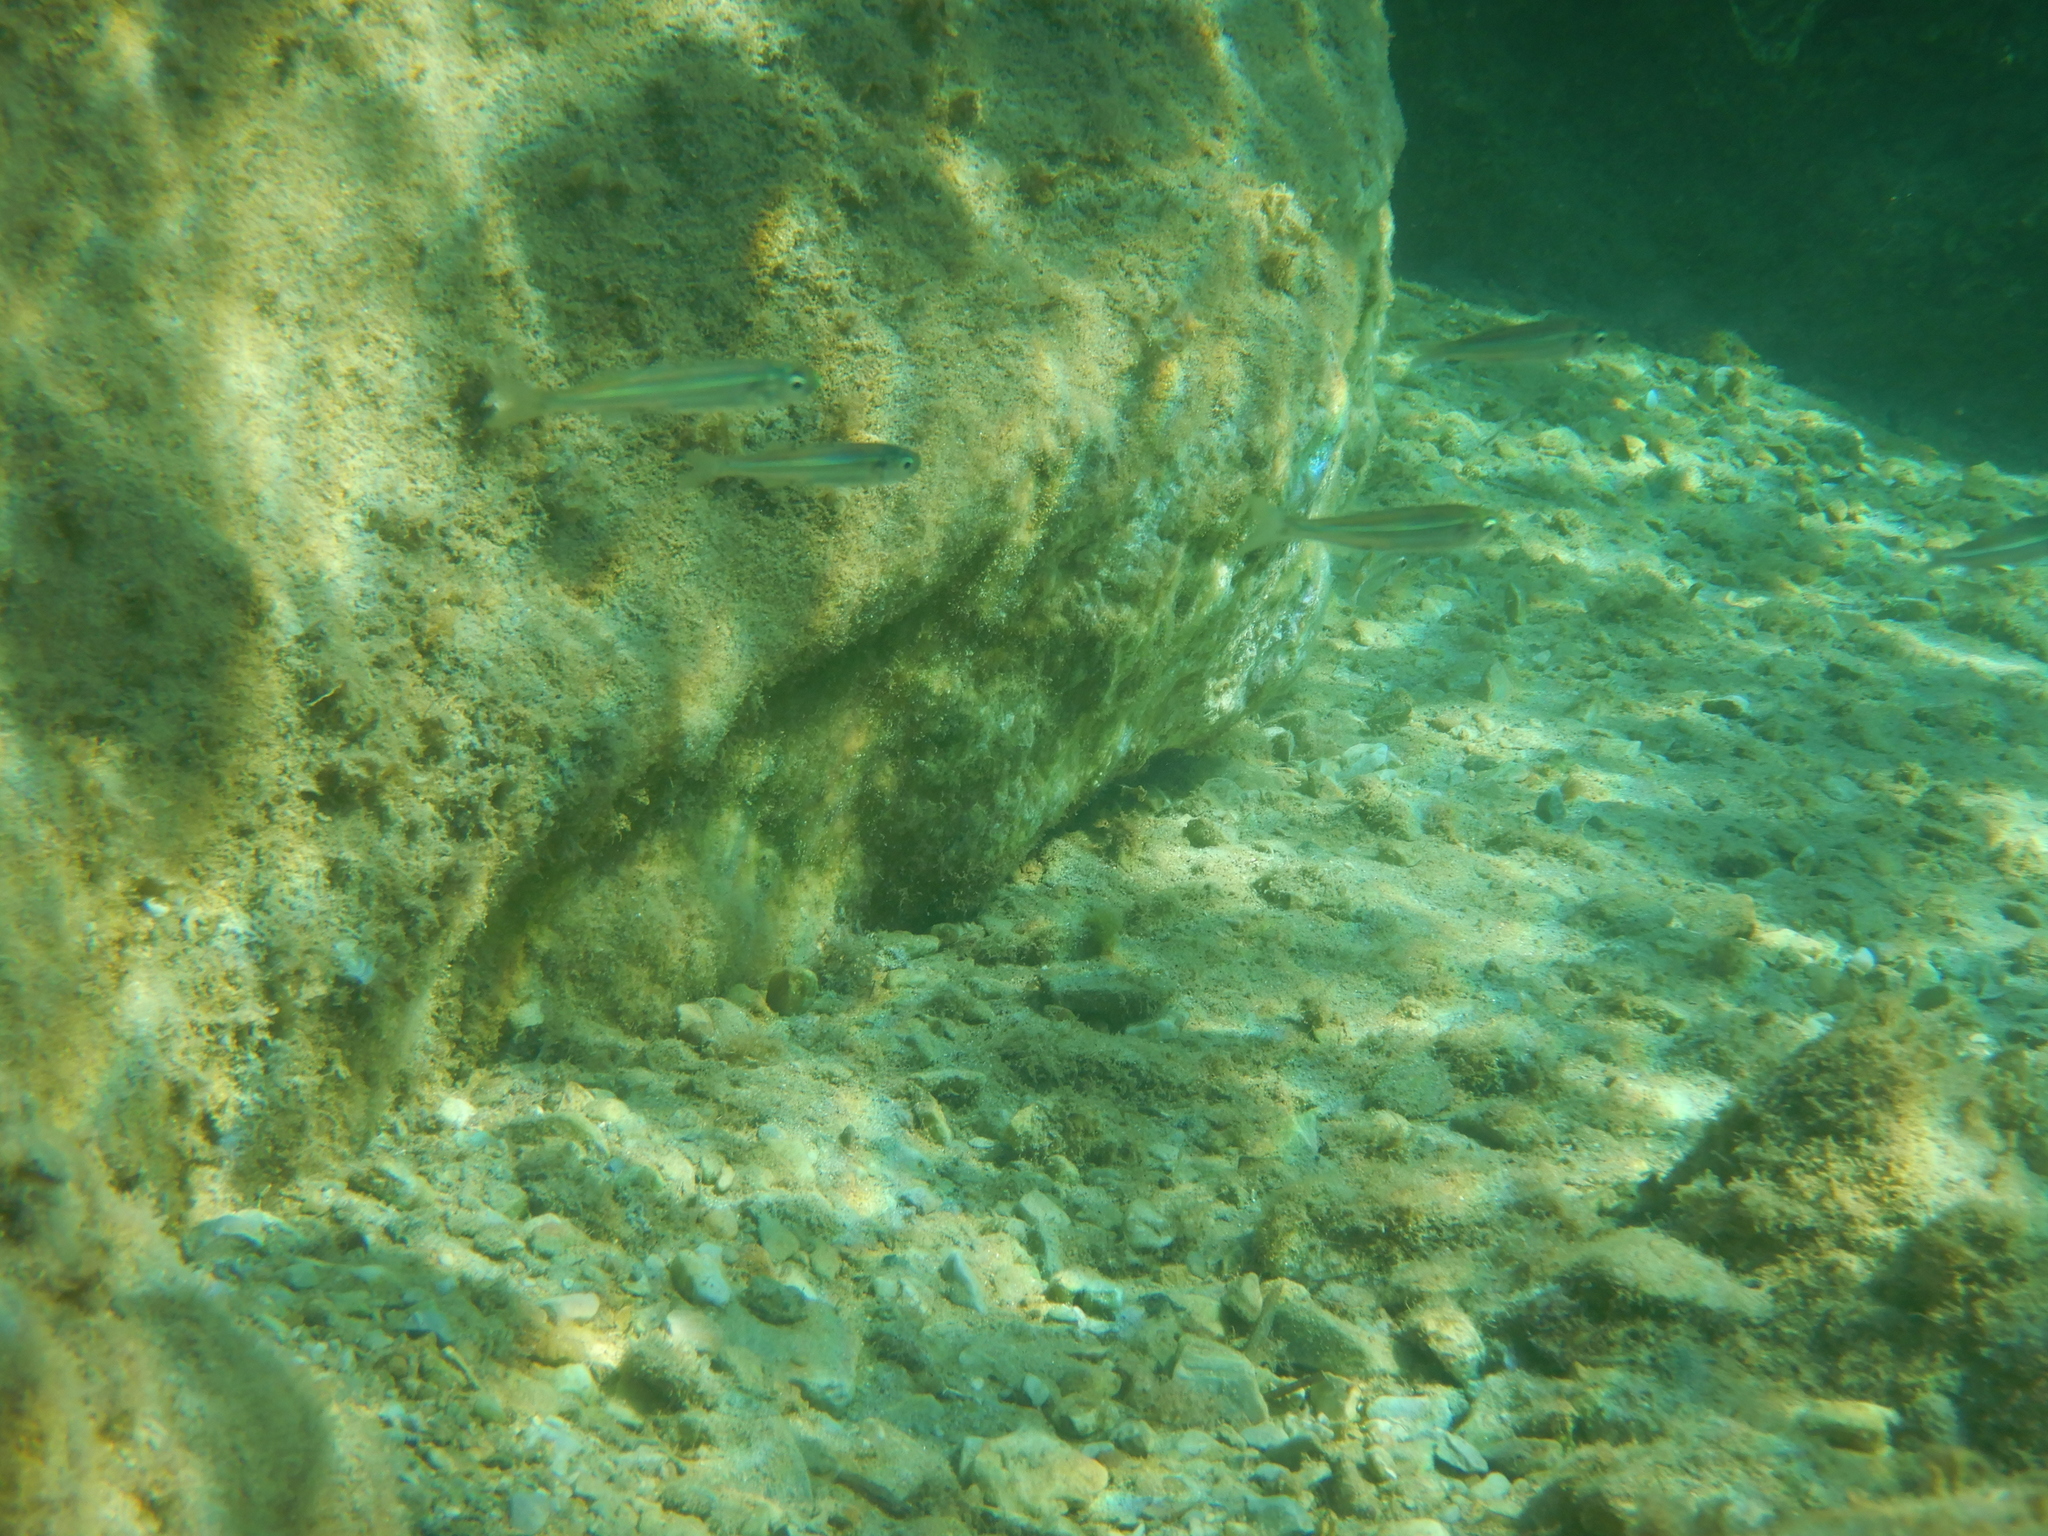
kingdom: Animalia
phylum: Chordata
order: Atheriniformes
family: Atherinidae
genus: Atherina
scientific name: Atherina
